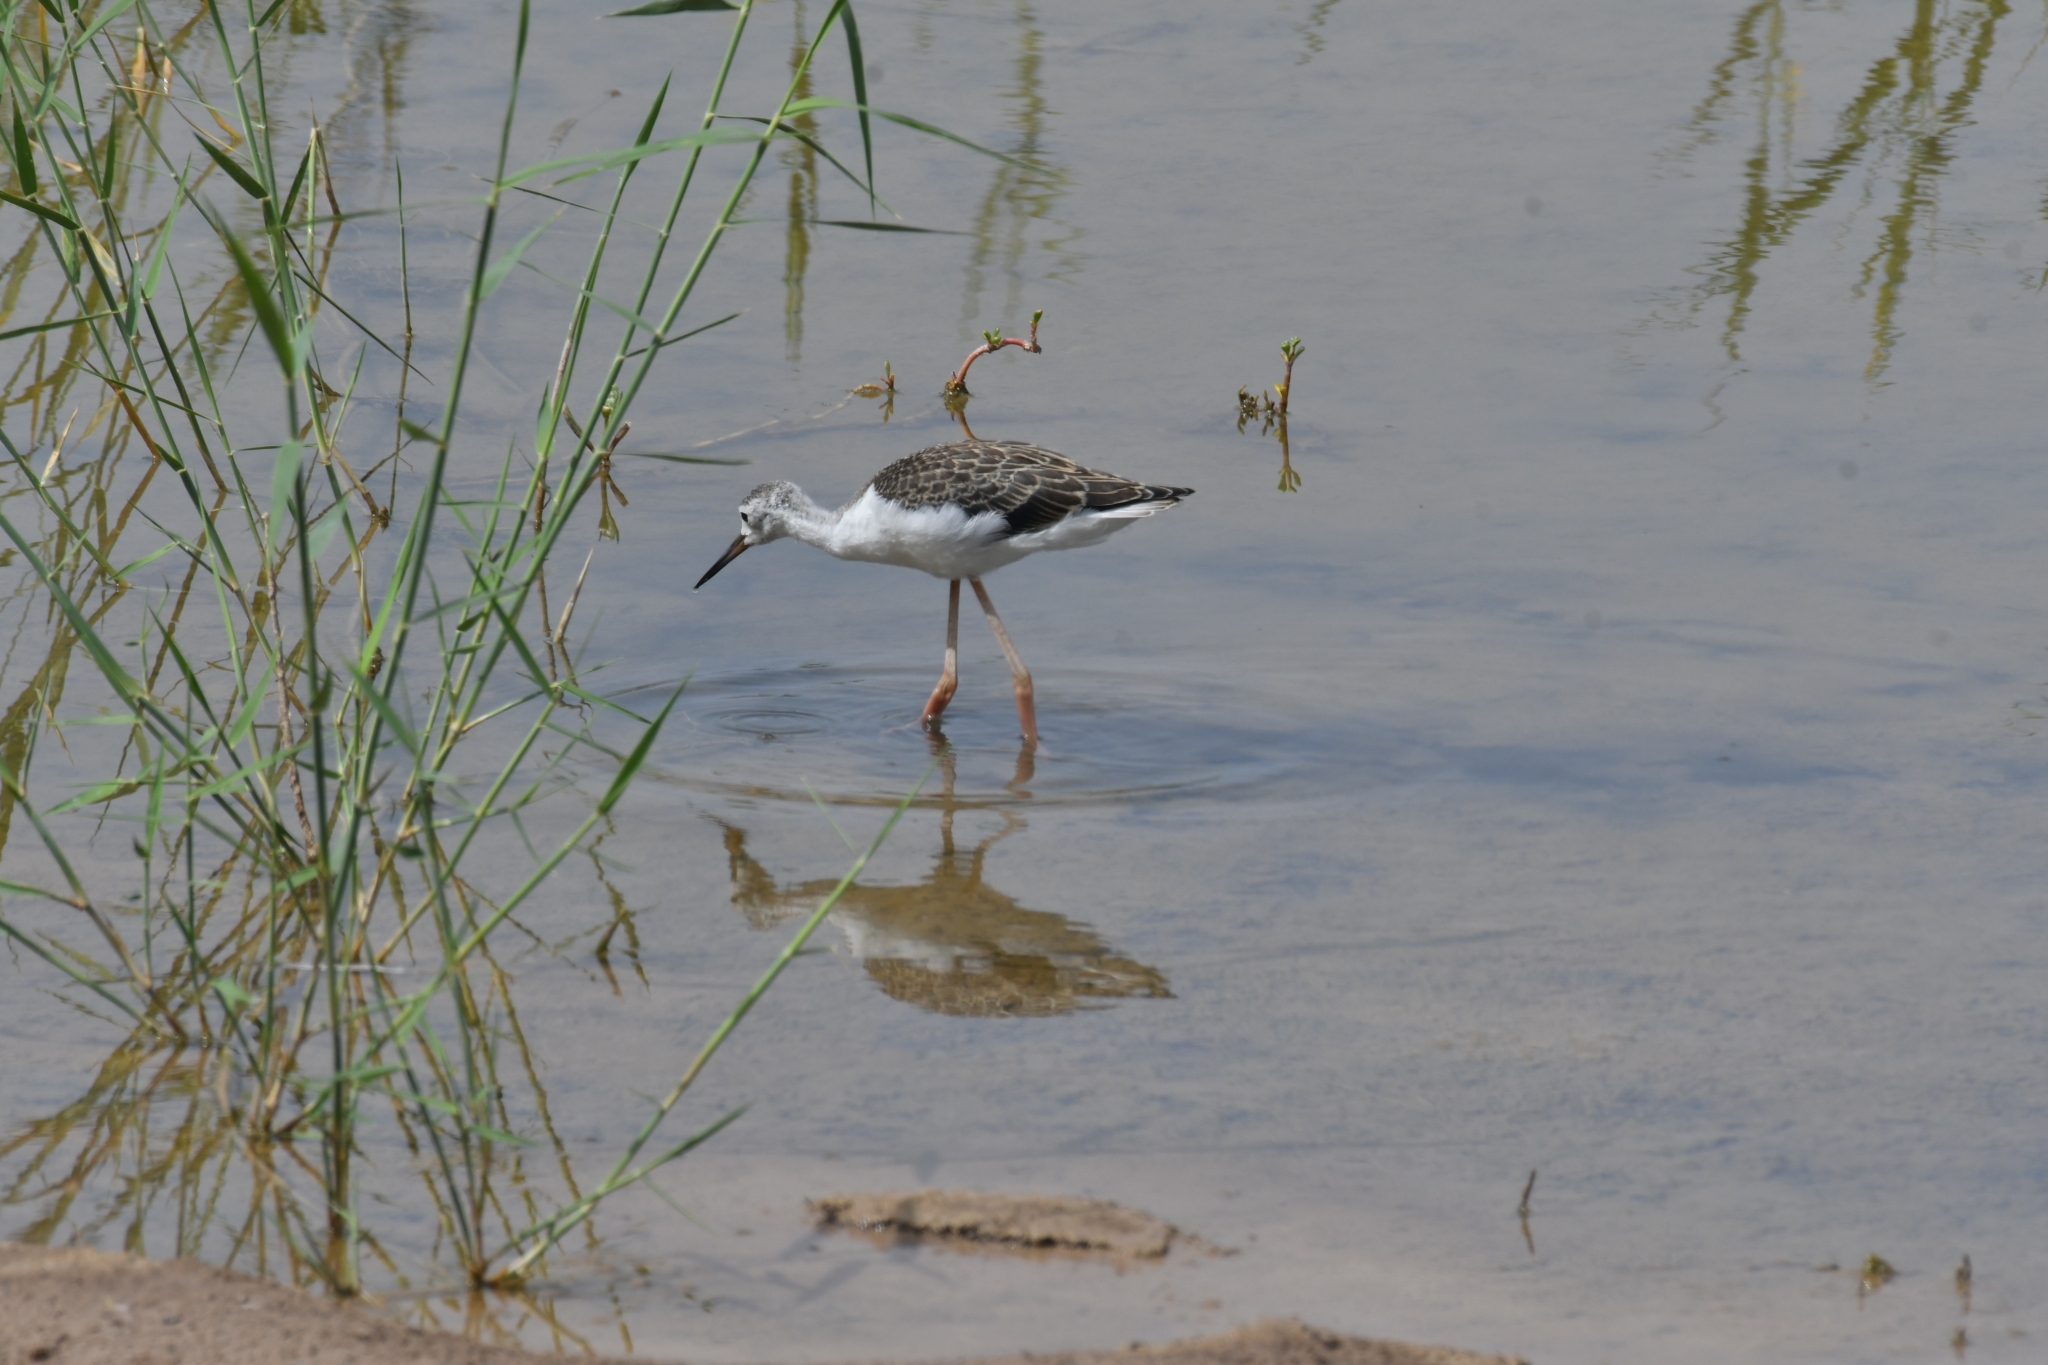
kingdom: Animalia
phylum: Chordata
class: Aves
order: Charadriiformes
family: Recurvirostridae
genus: Himantopus
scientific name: Himantopus himantopus
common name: Black-winged stilt
